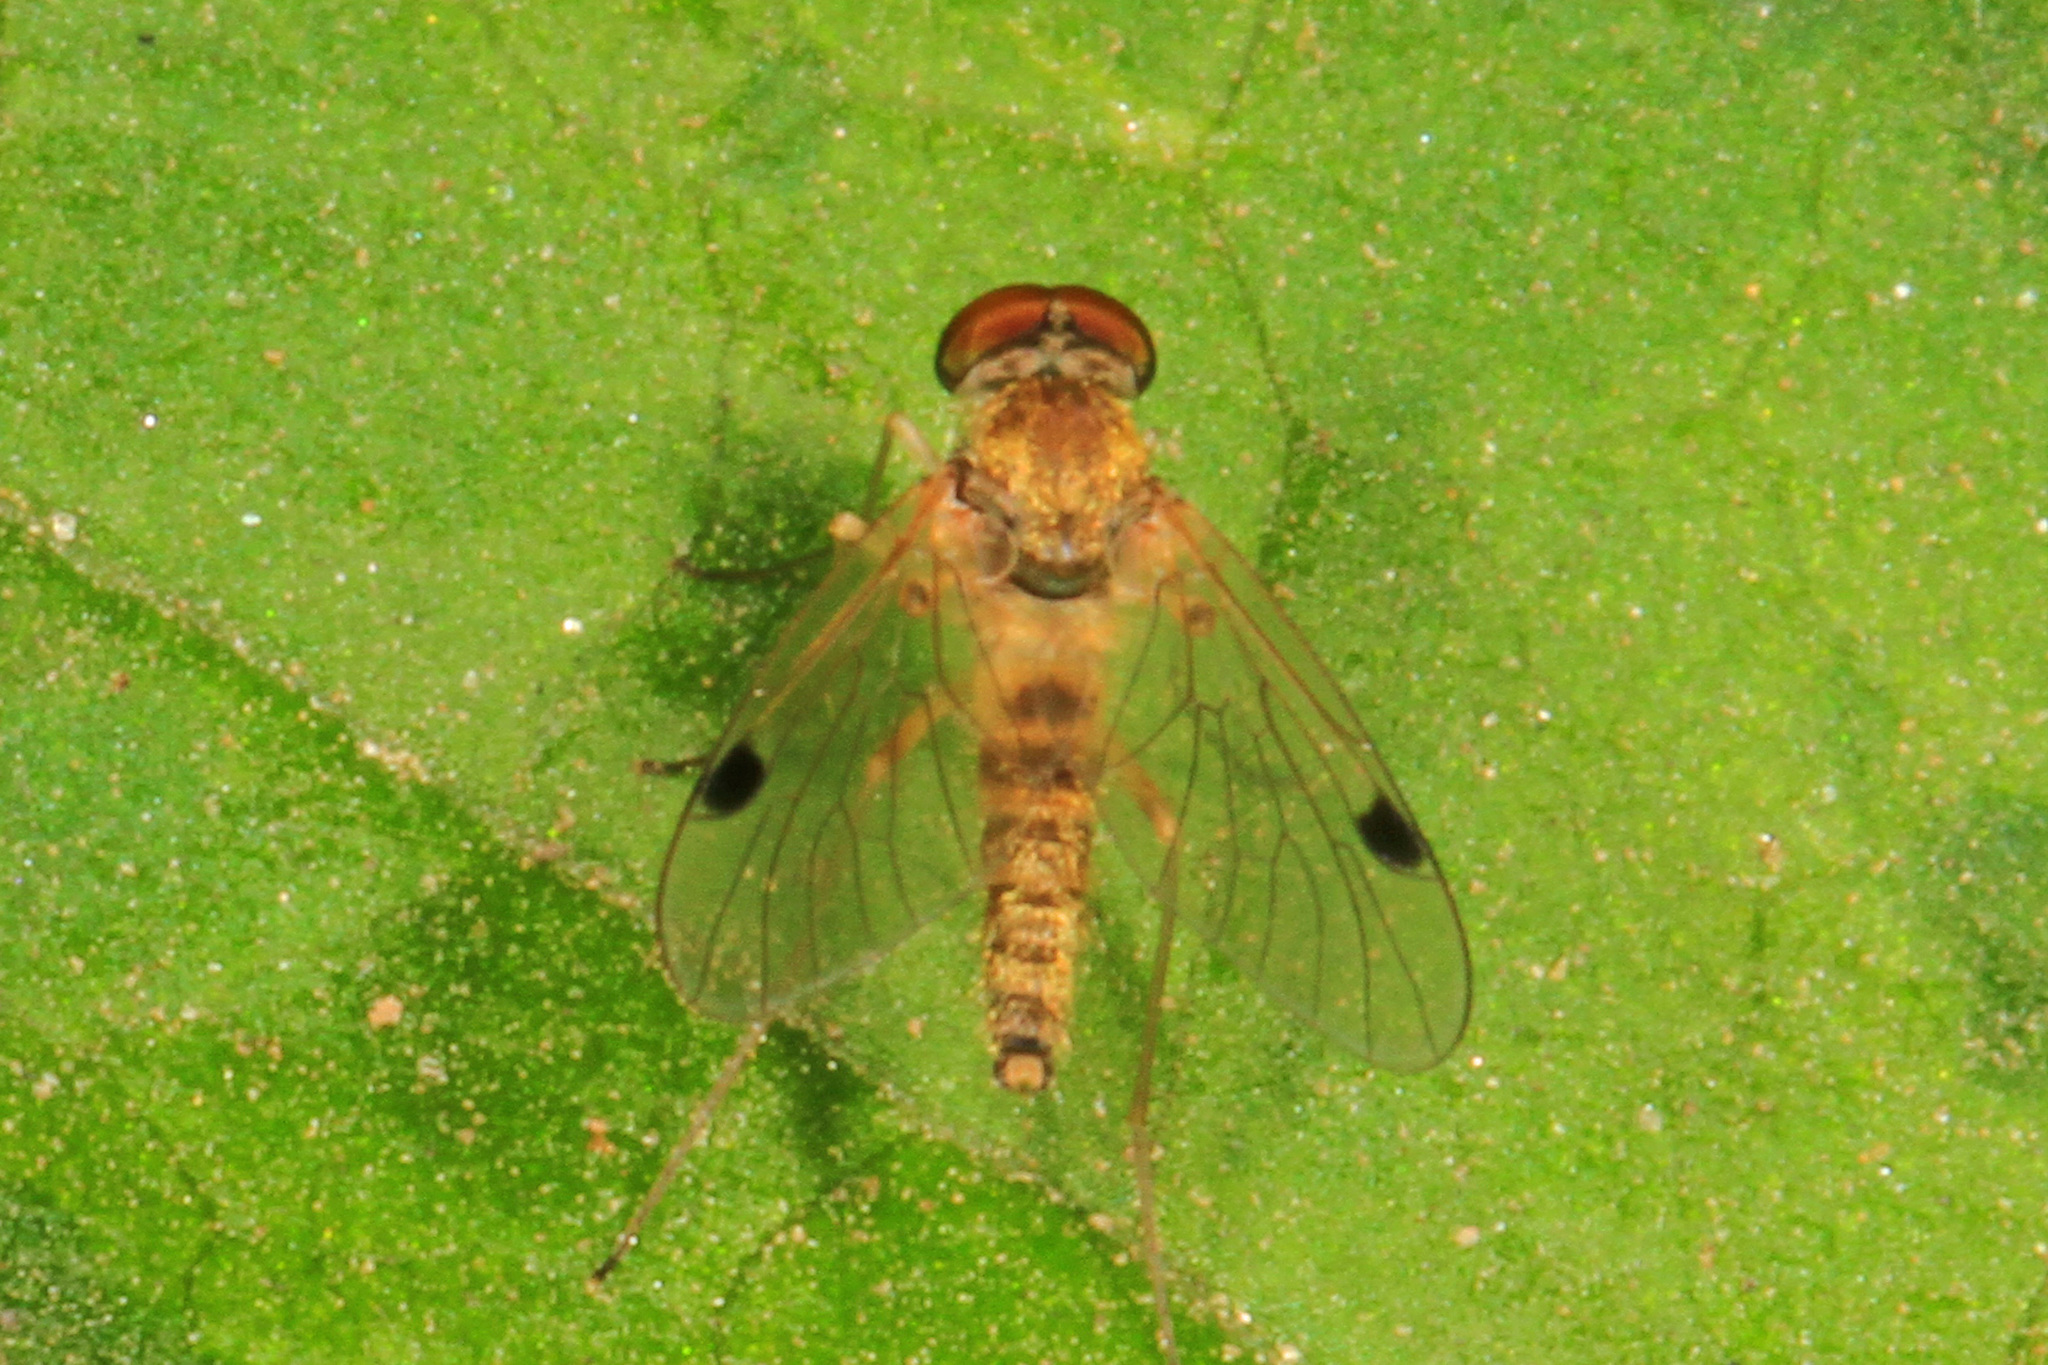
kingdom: Animalia
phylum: Arthropoda
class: Insecta
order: Diptera
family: Rhagionidae
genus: Chrysopilus
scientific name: Chrysopilus modestus
